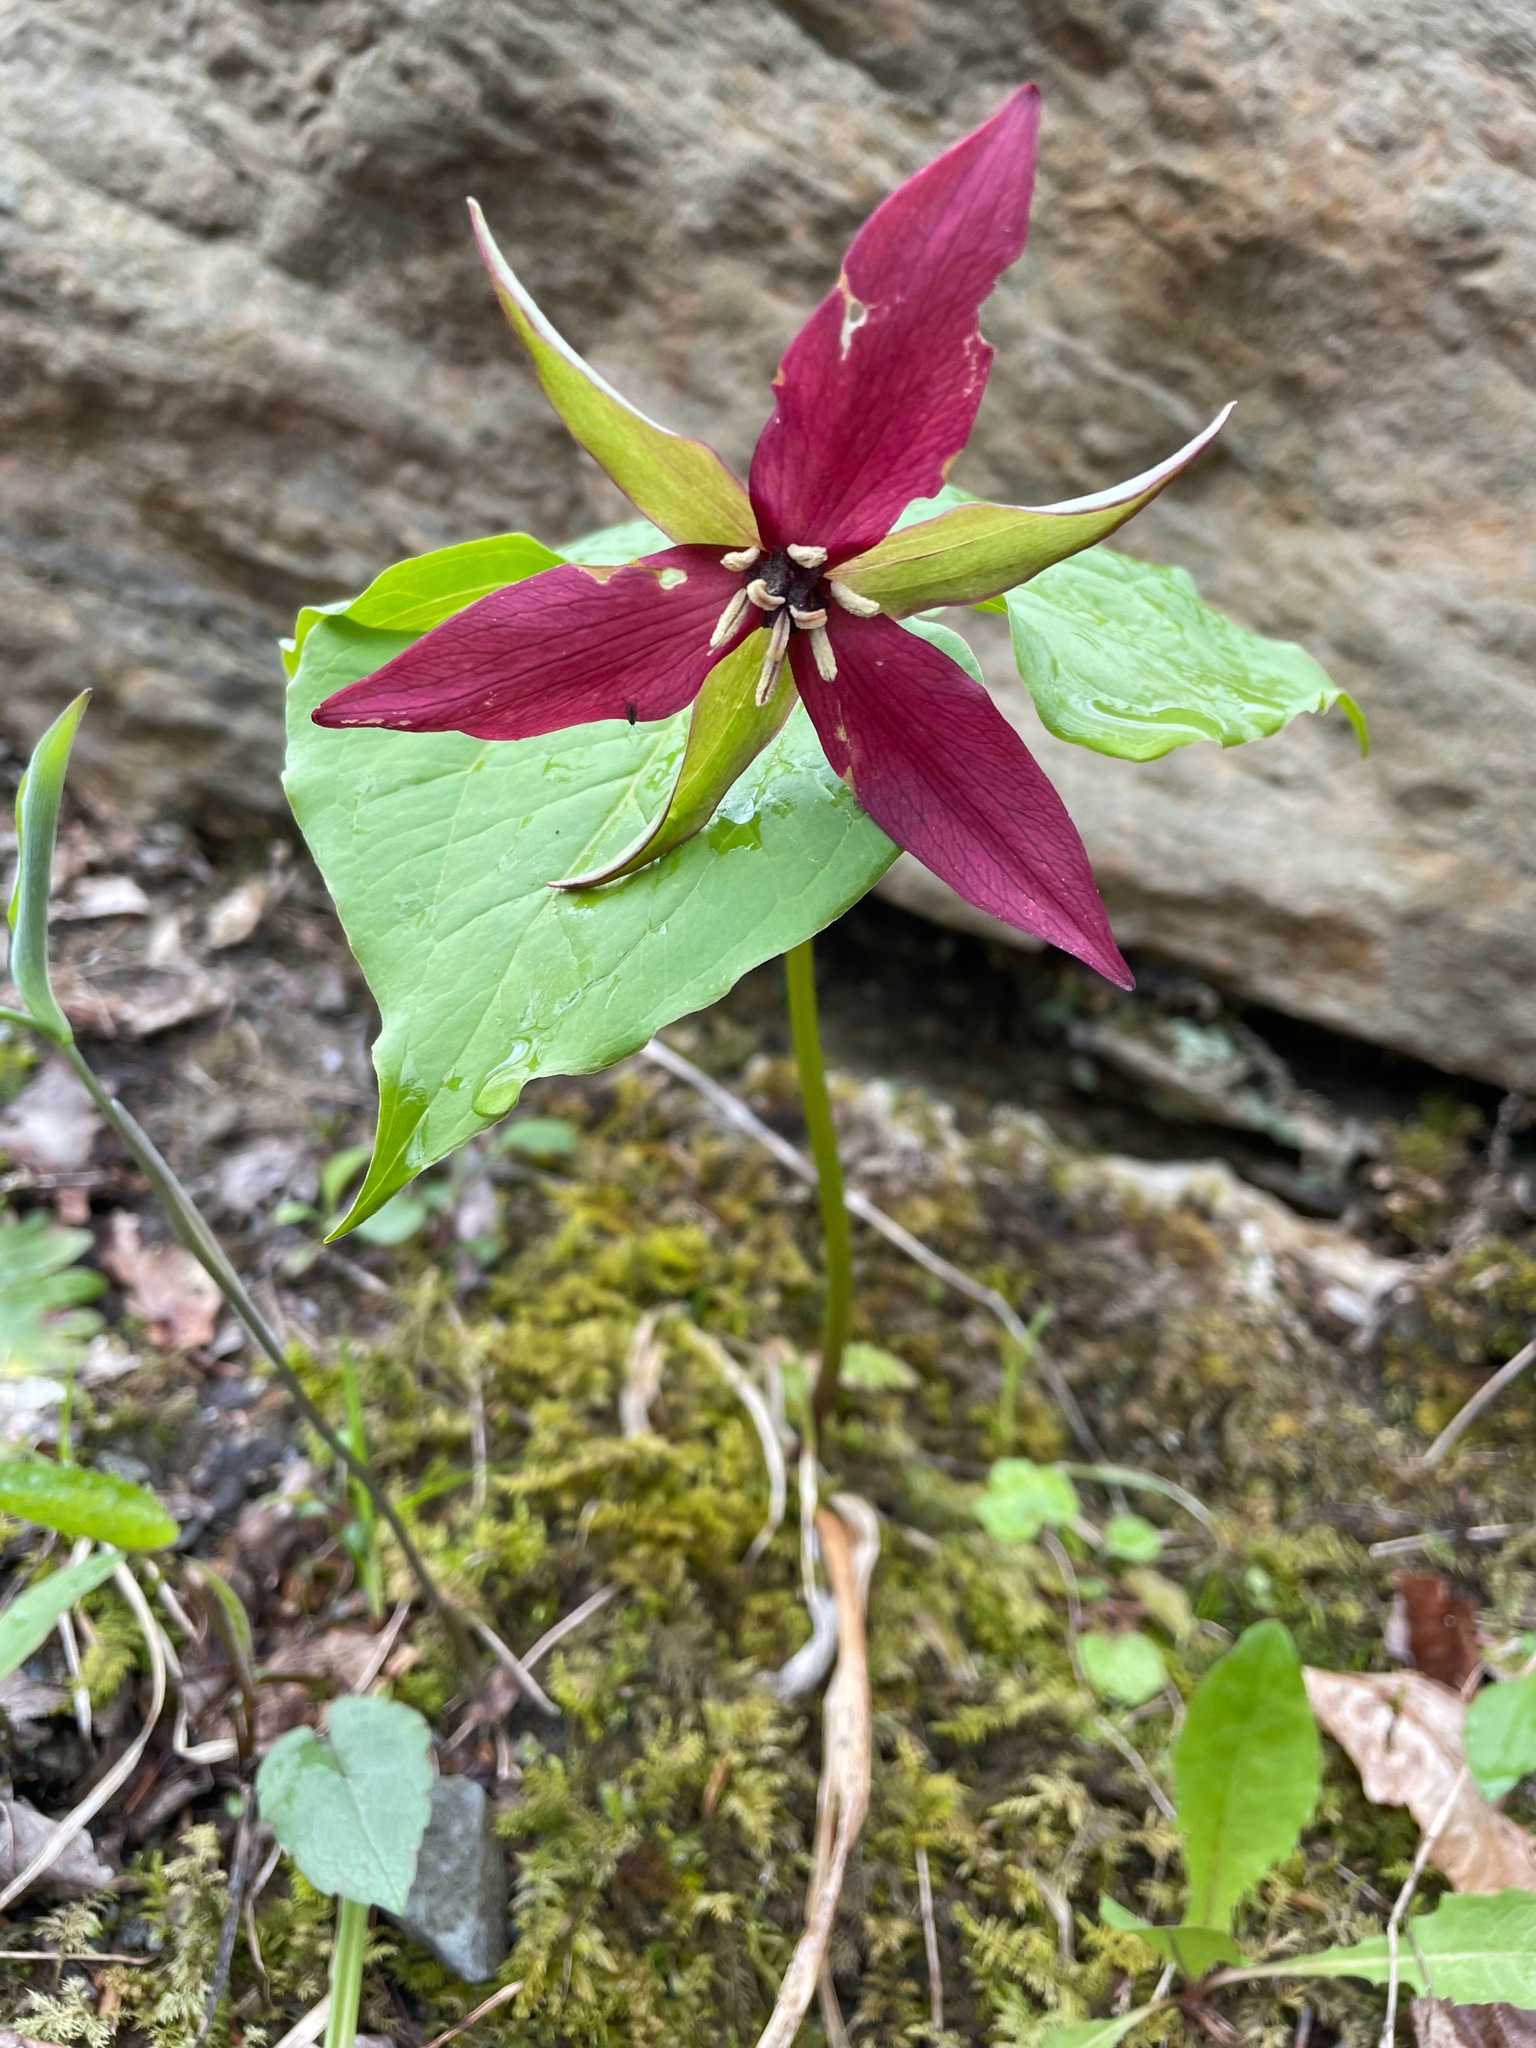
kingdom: Plantae
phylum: Tracheophyta
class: Liliopsida
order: Liliales
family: Melanthiaceae
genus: Trillium
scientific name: Trillium erectum
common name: Purple trillium
